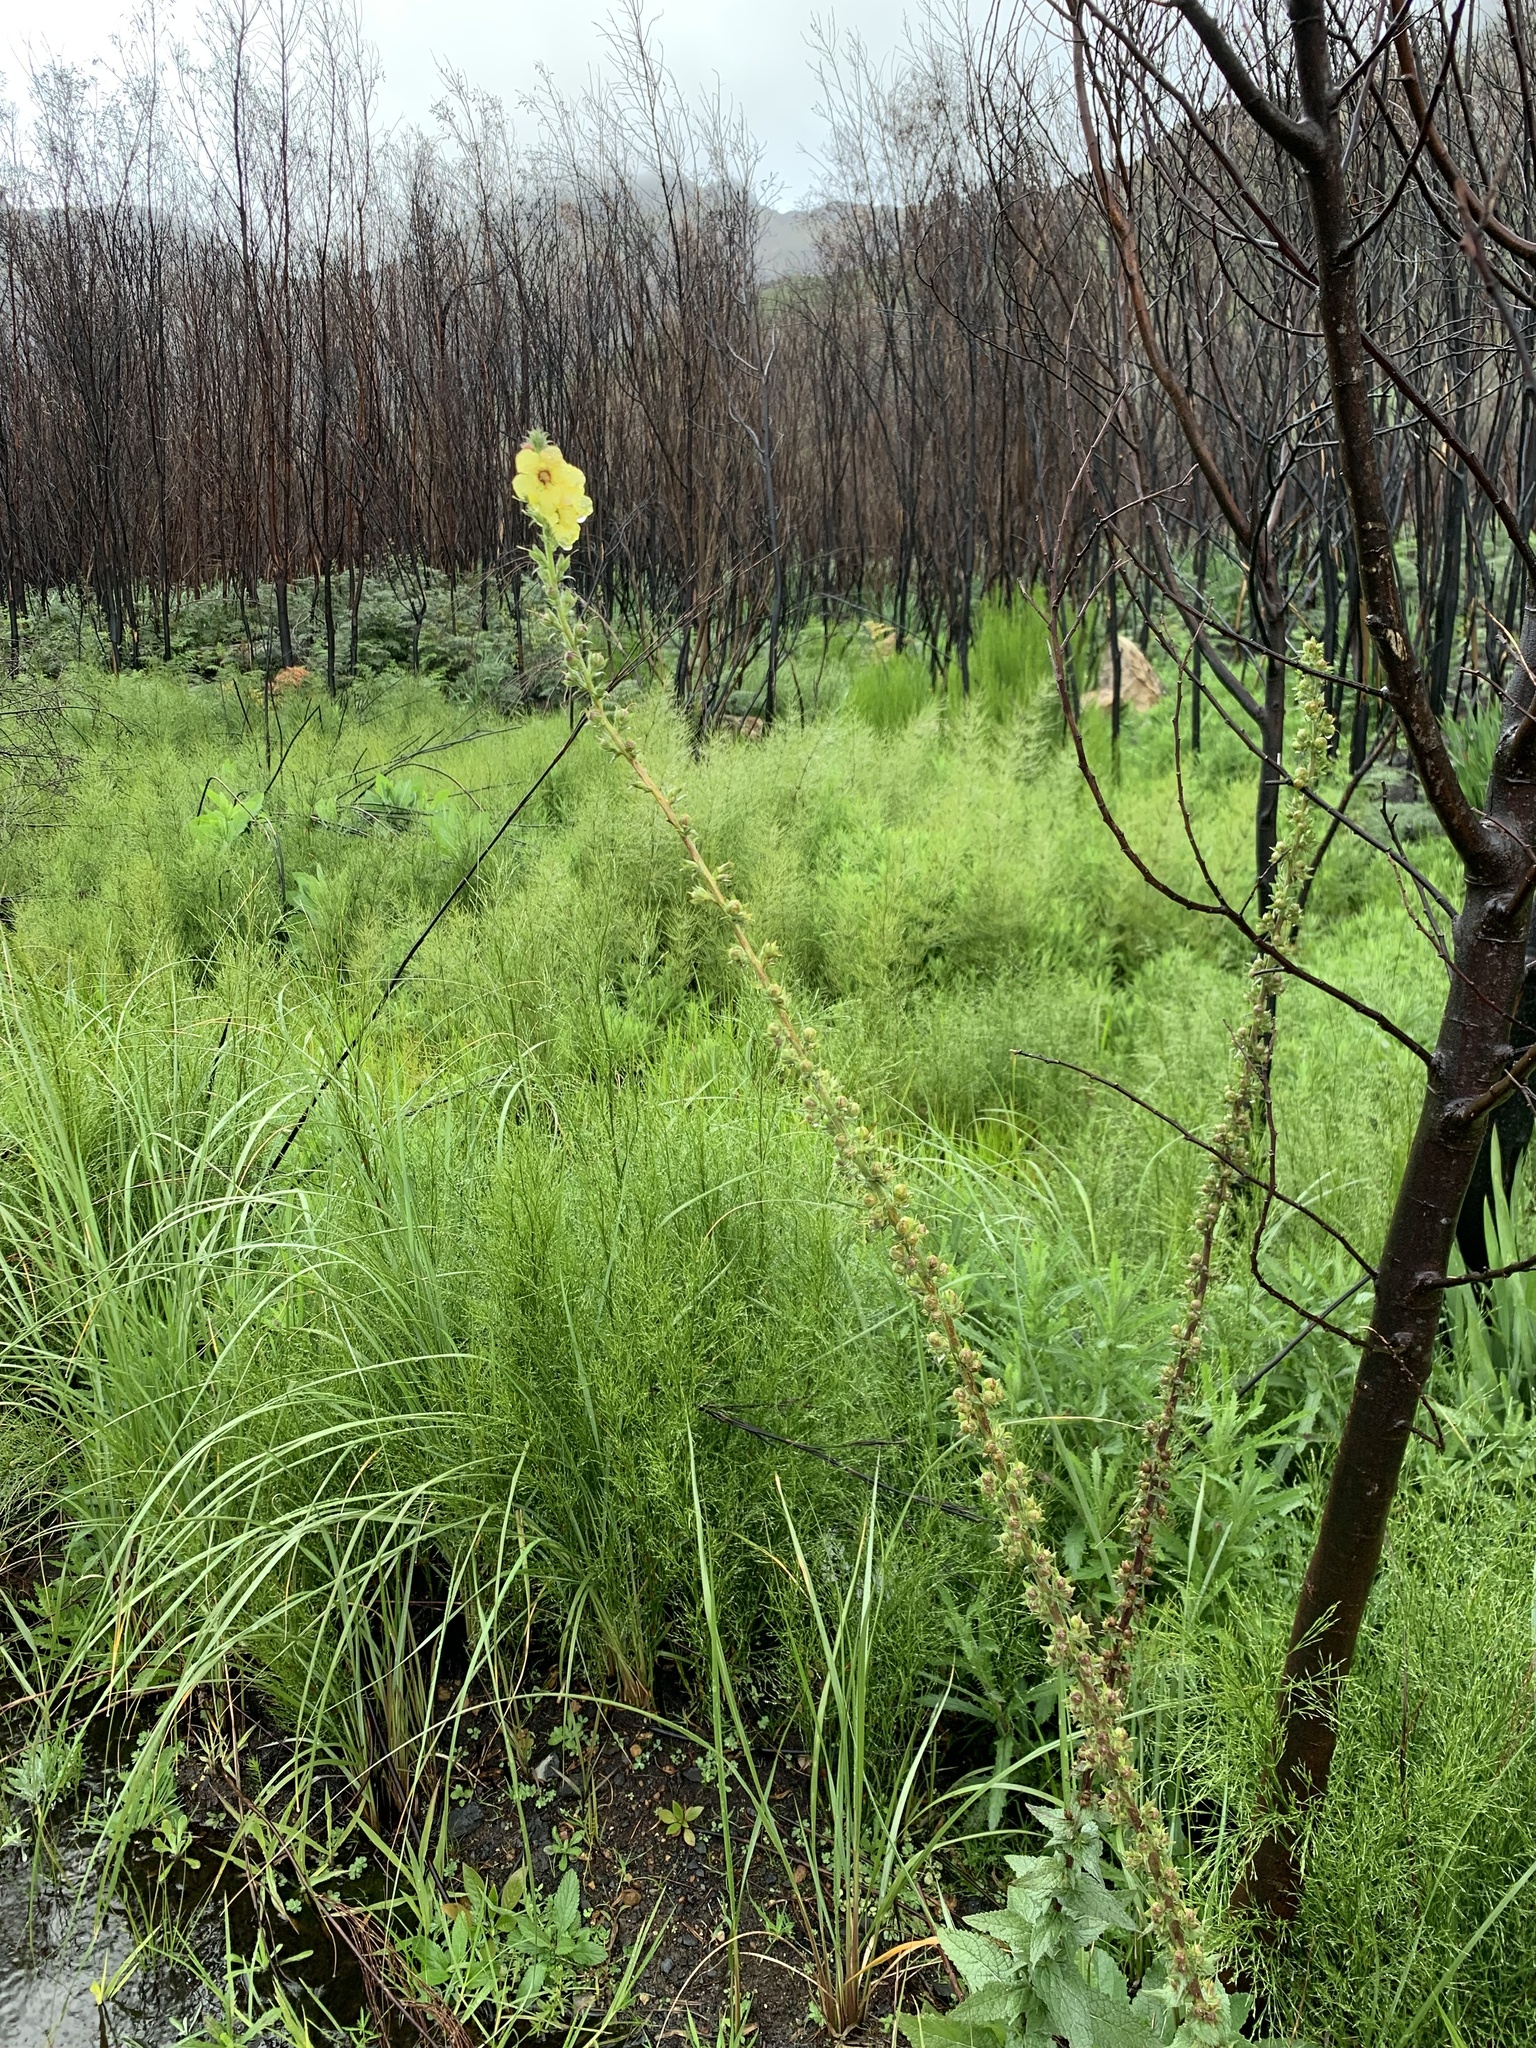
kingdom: Plantae
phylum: Tracheophyta
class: Magnoliopsida
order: Lamiales
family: Scrophulariaceae
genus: Verbascum
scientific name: Verbascum virgatum
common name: Twiggy mullein
